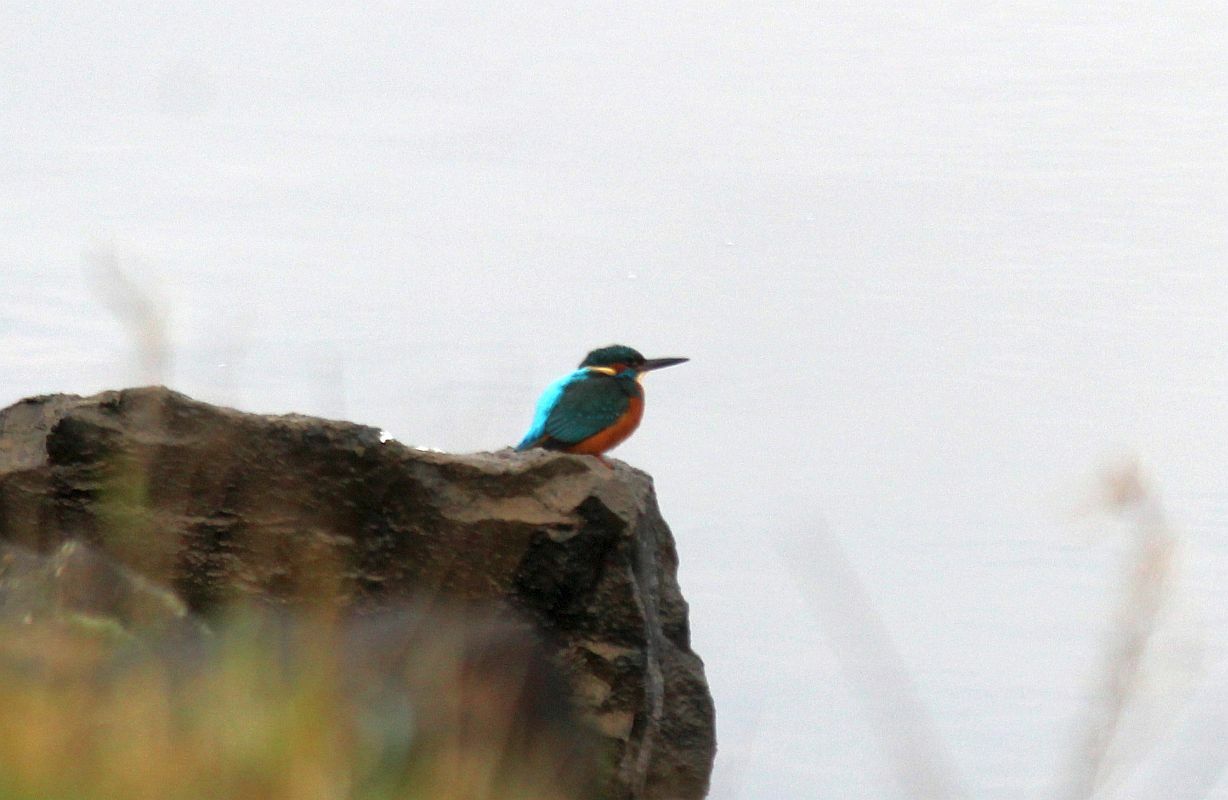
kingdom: Animalia
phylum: Chordata
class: Aves
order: Coraciiformes
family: Alcedinidae
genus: Alcedo
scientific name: Alcedo atthis
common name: Common kingfisher
